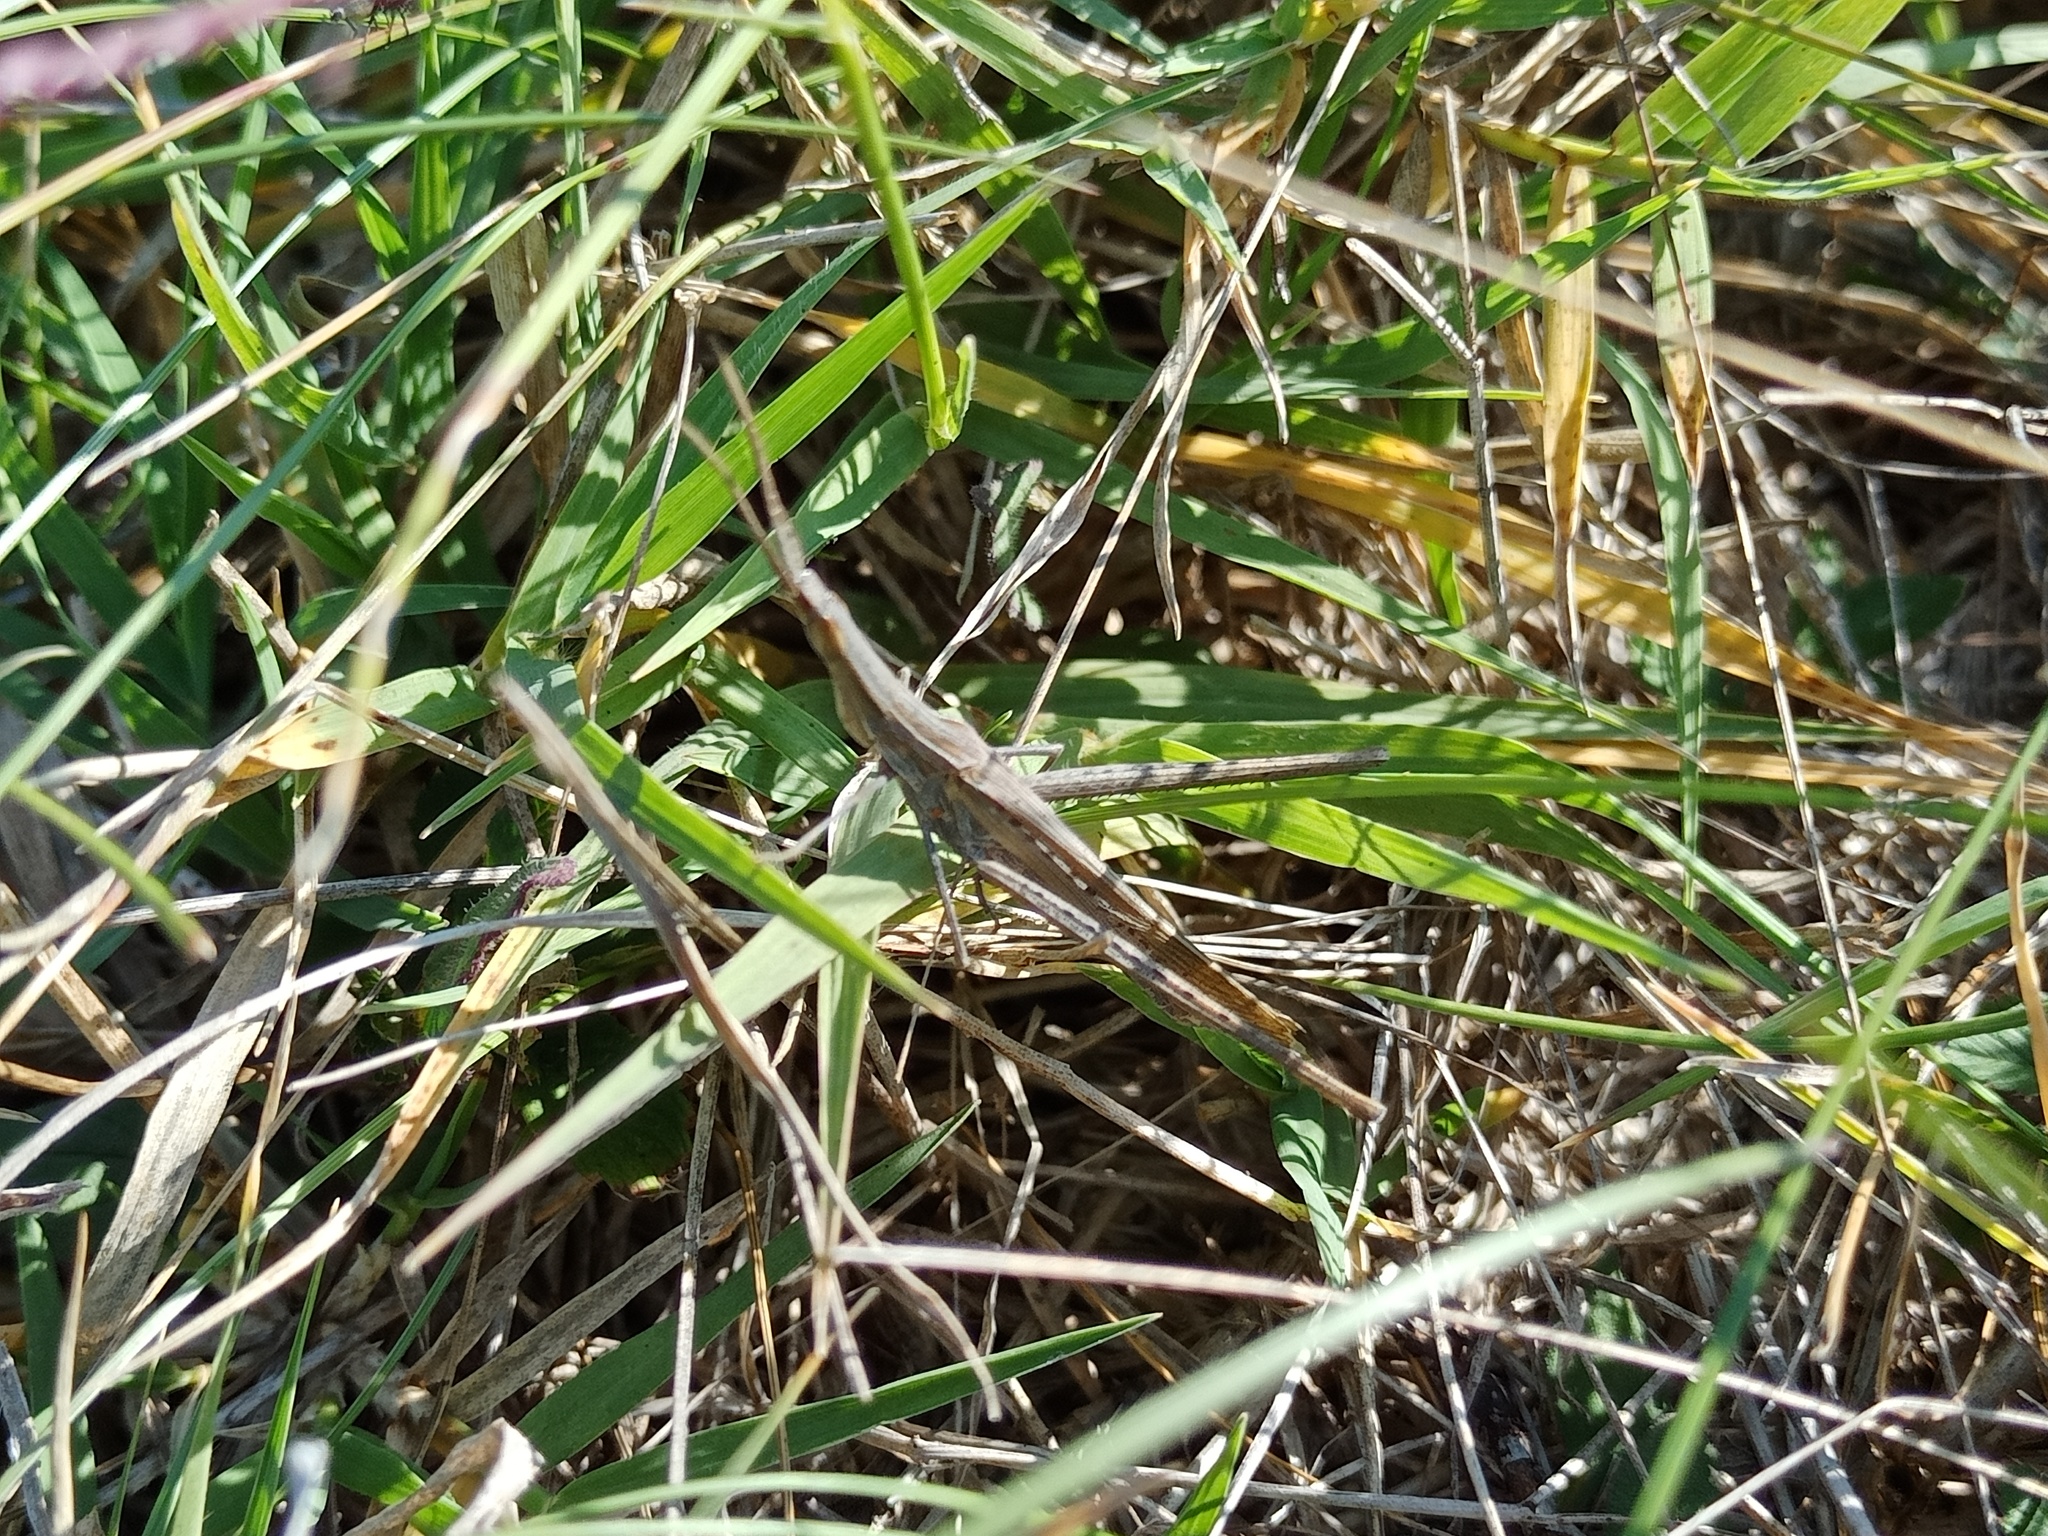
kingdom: Animalia
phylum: Arthropoda
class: Insecta
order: Orthoptera
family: Acrididae
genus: Acrida
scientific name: Acrida ungarica
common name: Common cone-headed grasshopper
